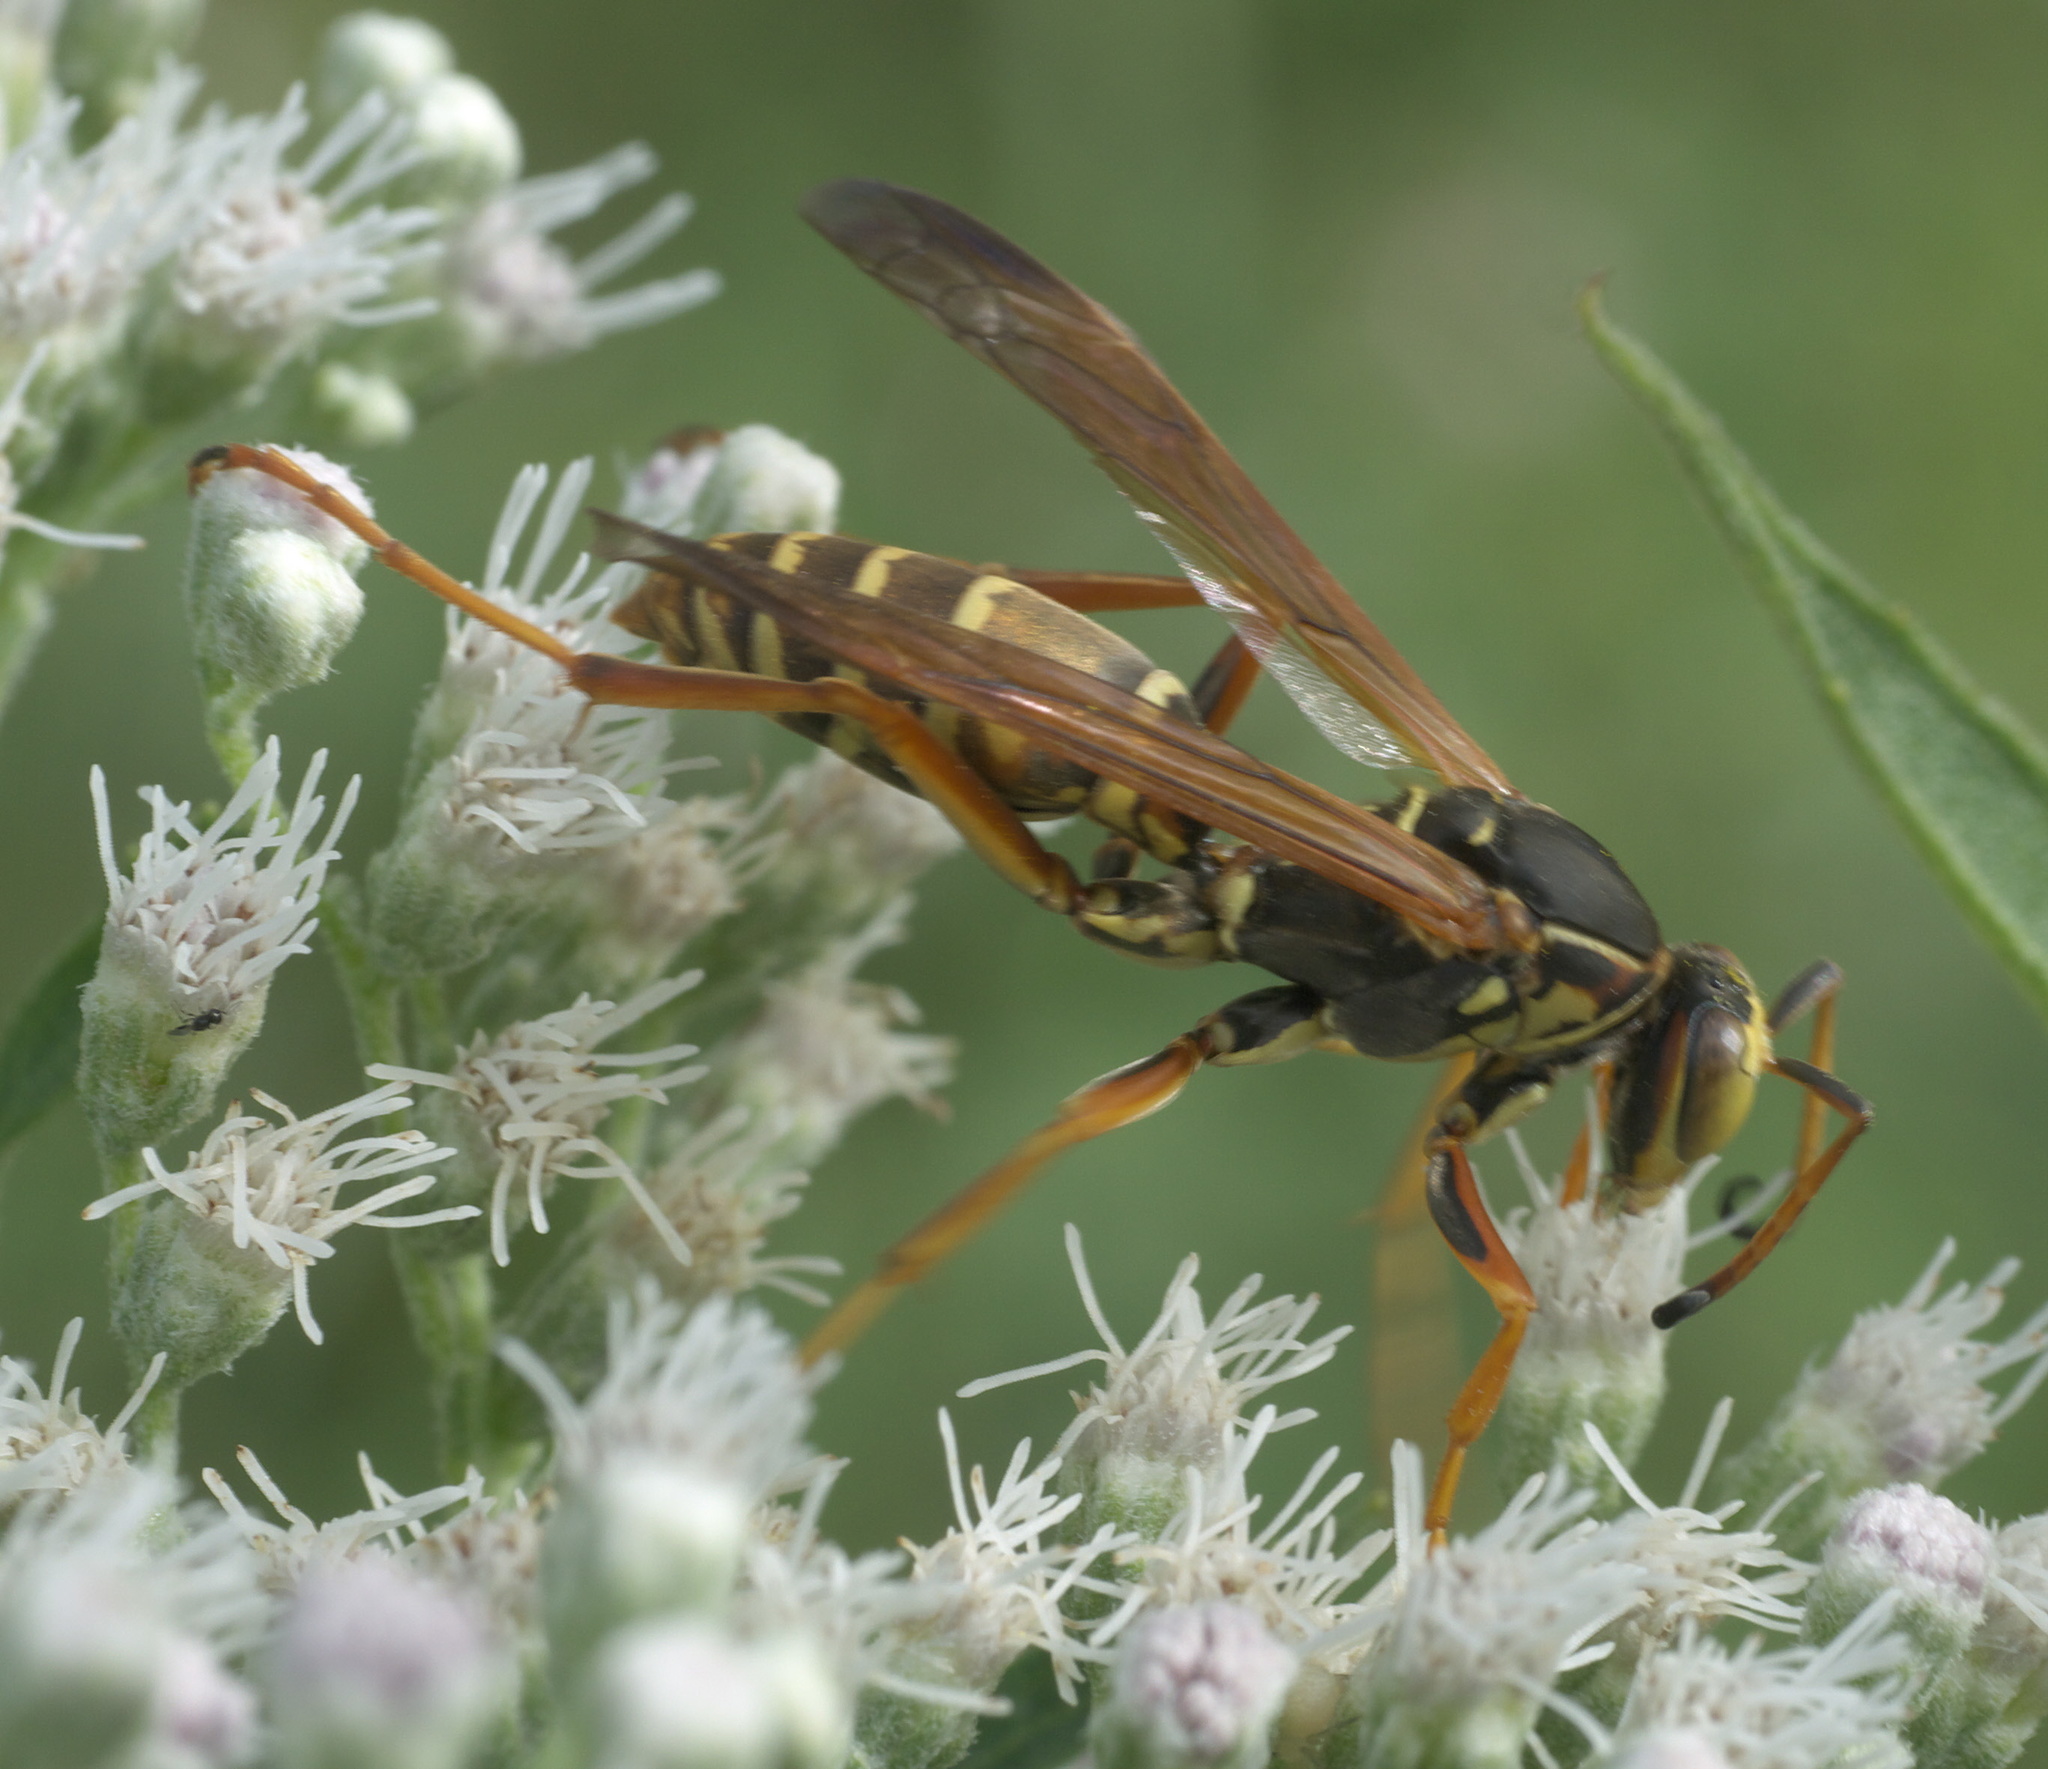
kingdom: Animalia
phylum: Arthropoda
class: Insecta
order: Hymenoptera
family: Eumenidae
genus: Polistes
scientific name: Polistes fuscatus
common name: Dark paper wasp
